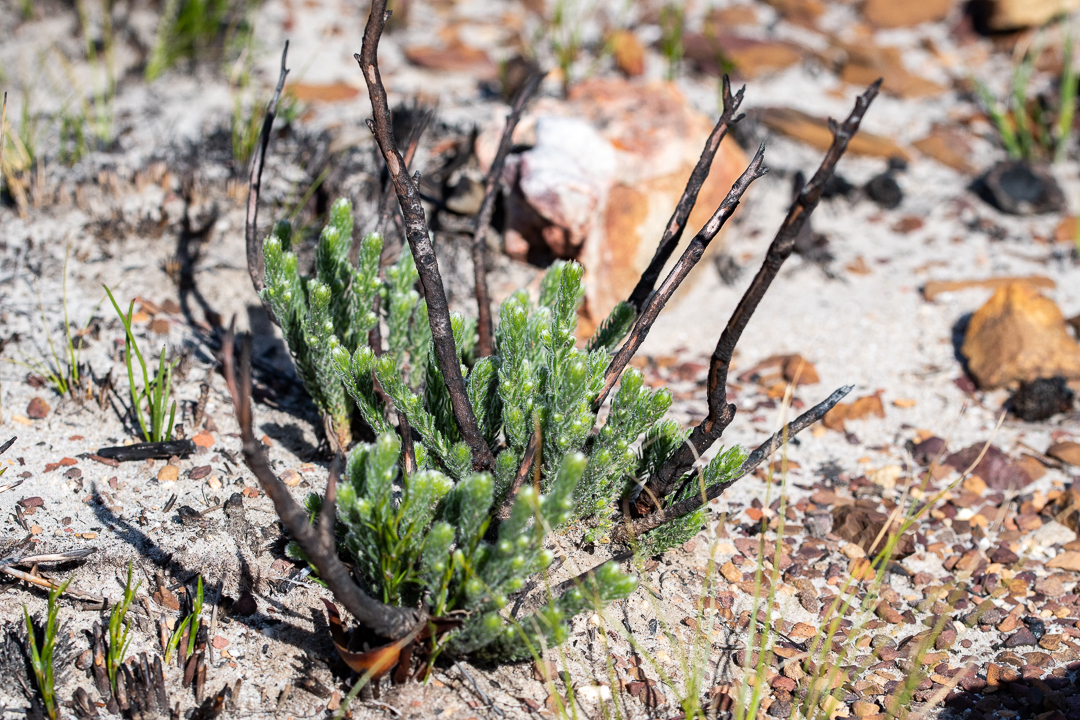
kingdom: Plantae
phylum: Tracheophyta
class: Magnoliopsida
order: Bruniales
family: Bruniaceae
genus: Brunia
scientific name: Brunia noduliflora
